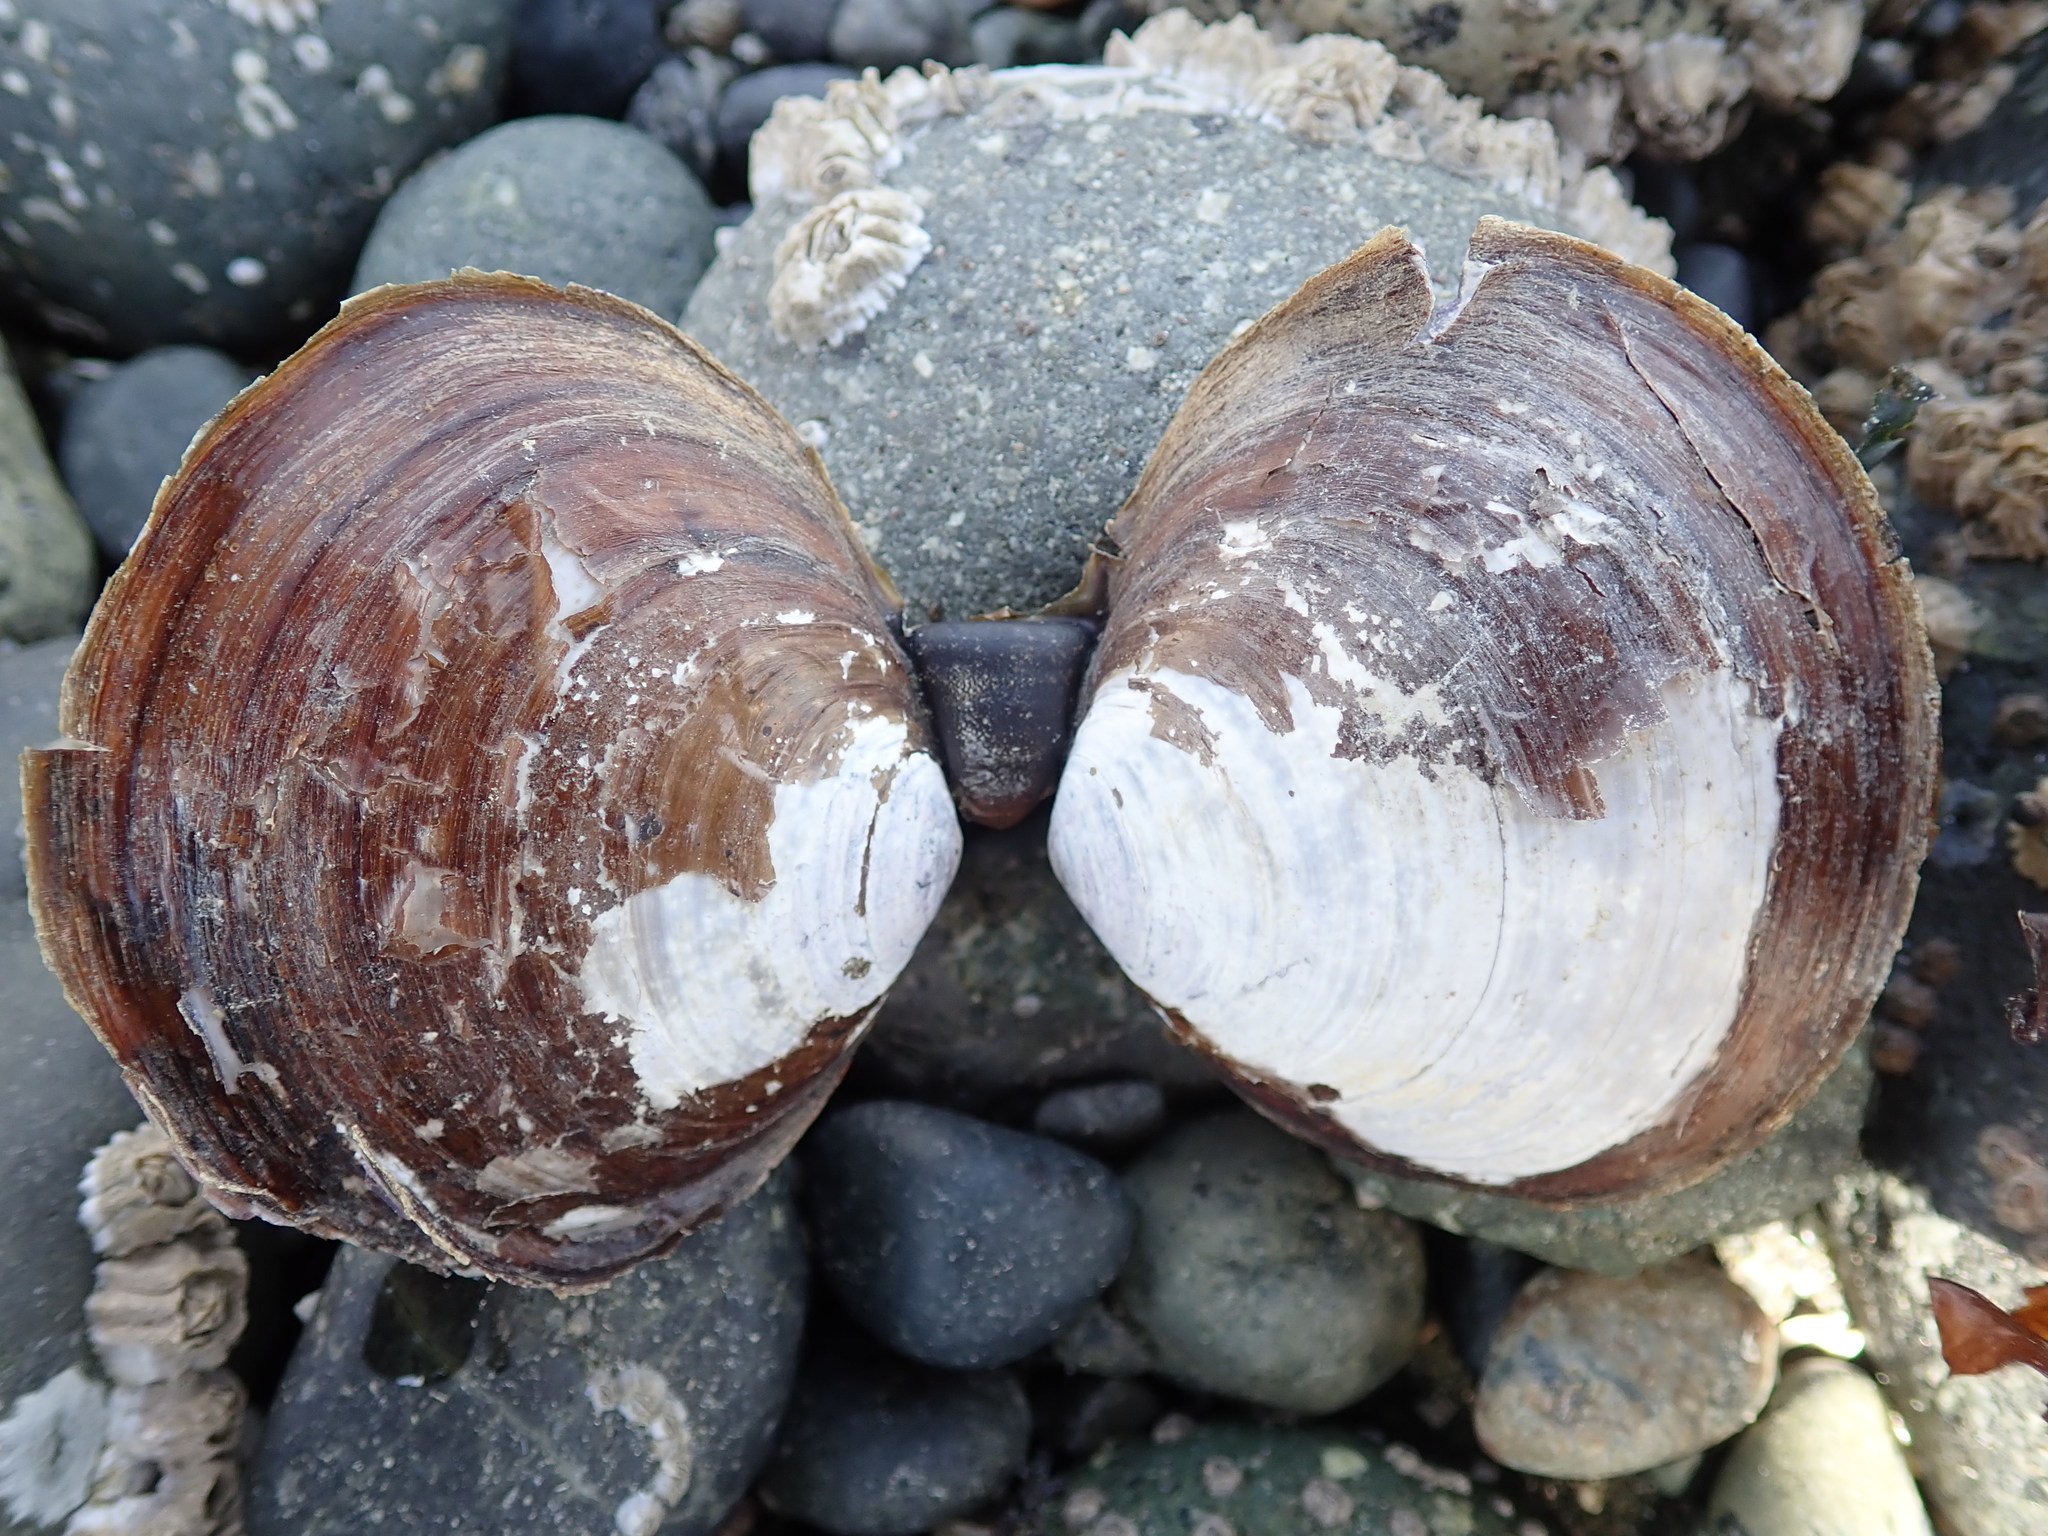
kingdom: Animalia
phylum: Mollusca
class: Bivalvia
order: Cardiida
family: Psammobiidae
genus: Nuttallia
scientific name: Nuttallia obscurata
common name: Purple mahogany-clam
